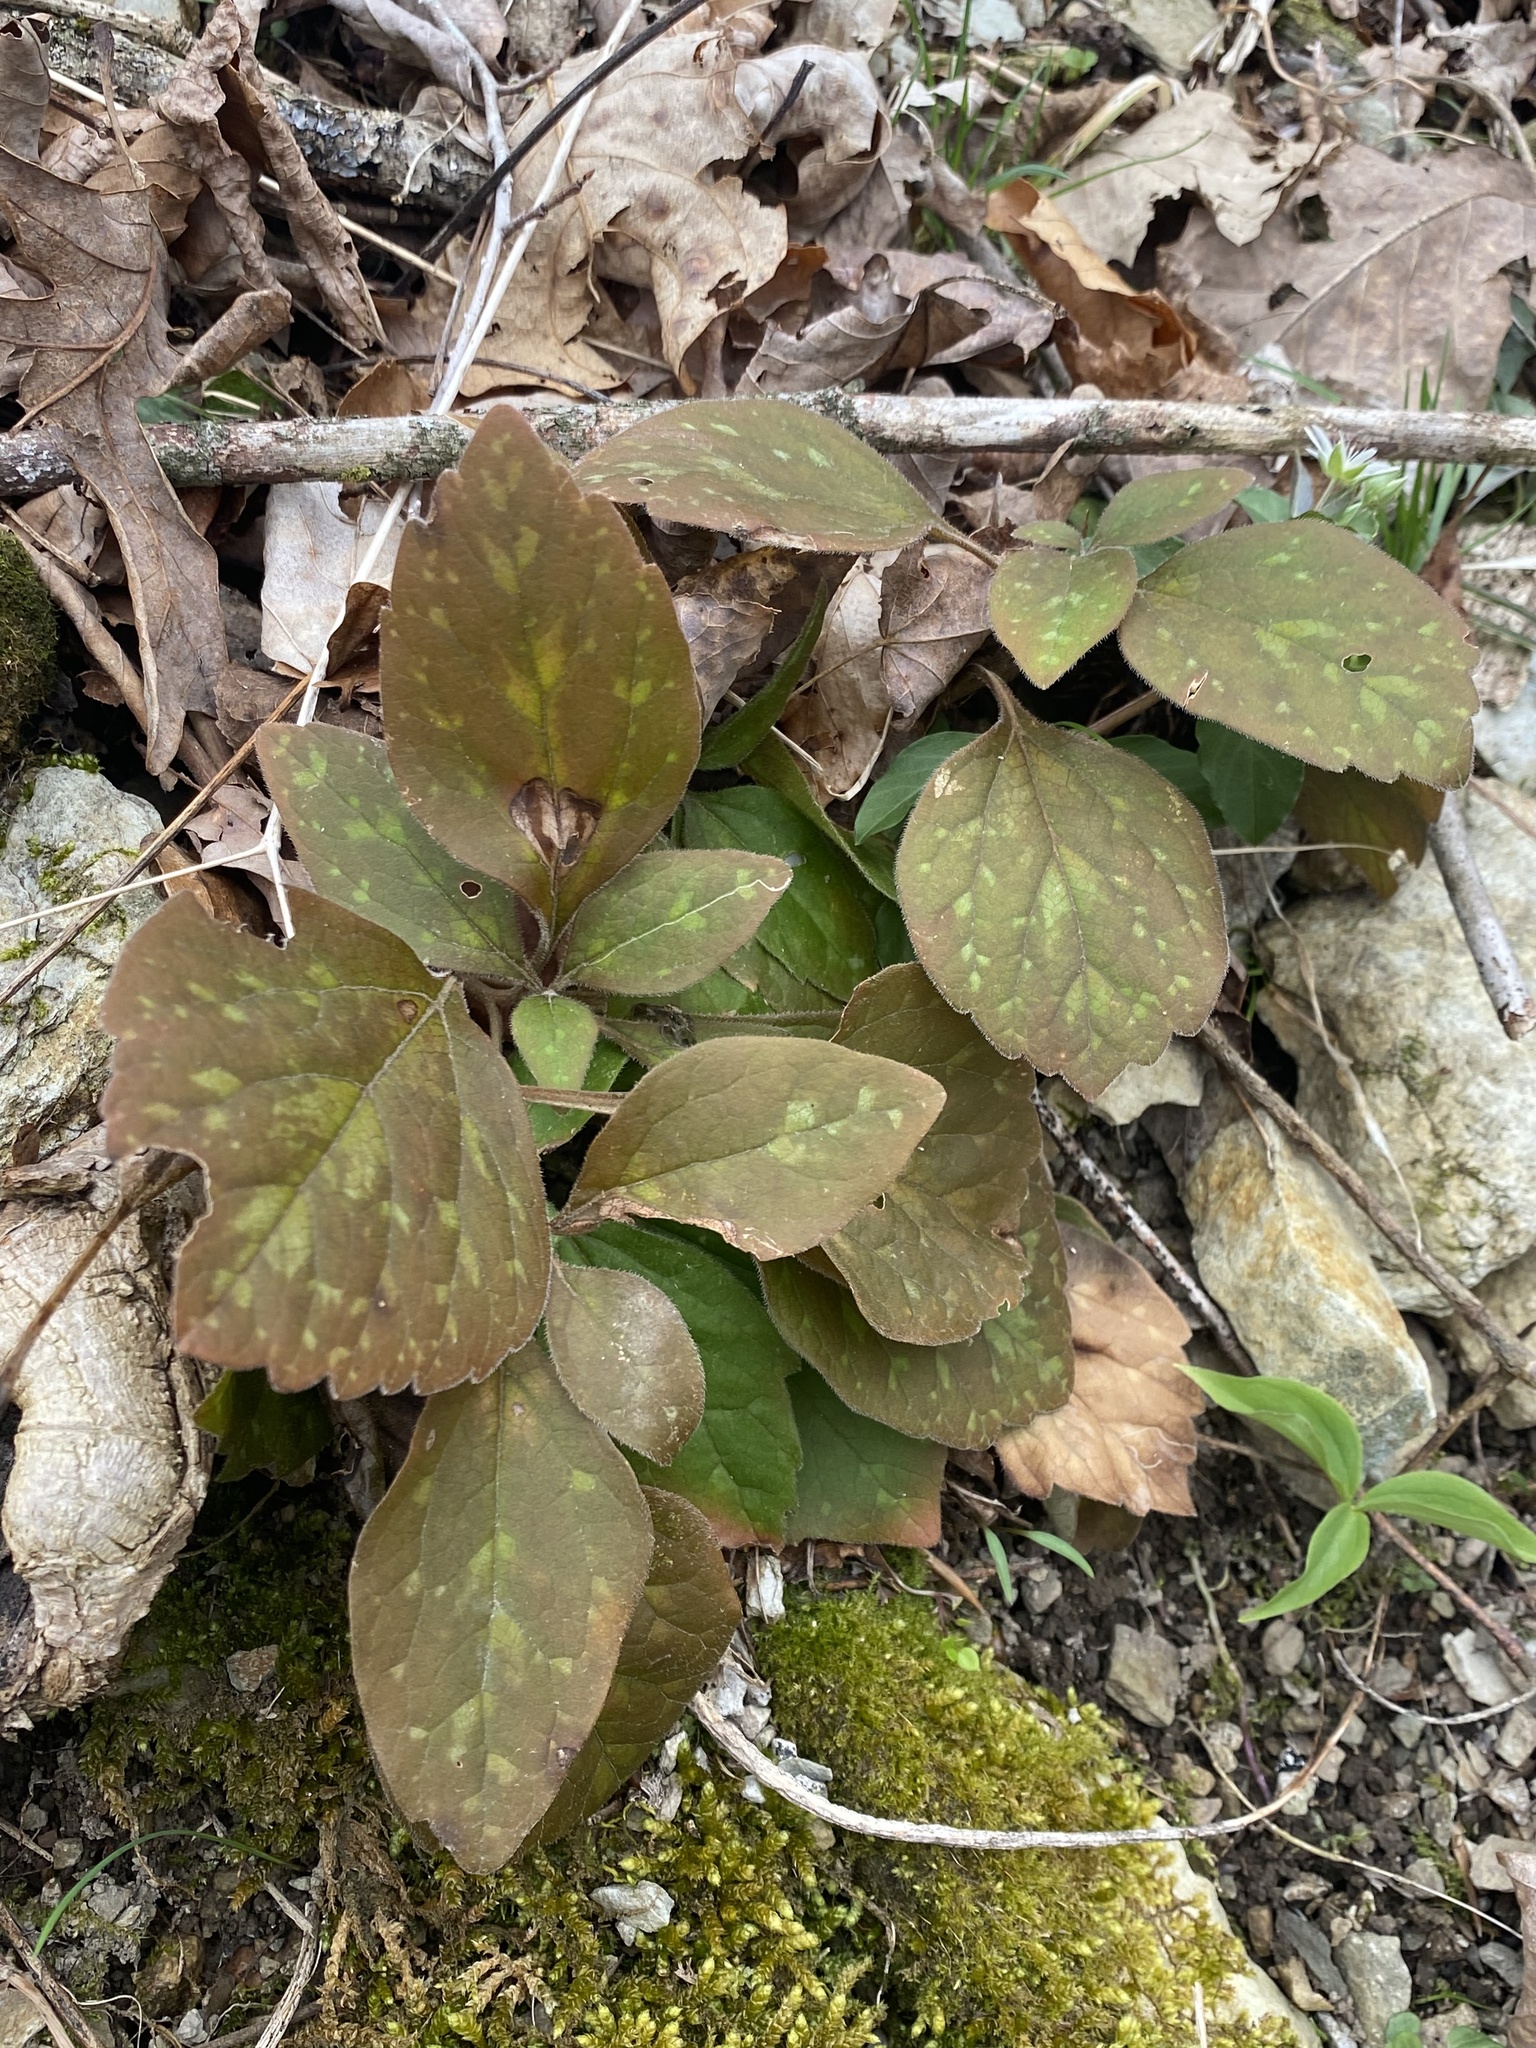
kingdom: Plantae
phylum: Tracheophyta
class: Magnoliopsida
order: Buxales
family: Buxaceae
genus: Pachysandra
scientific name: Pachysandra procumbens
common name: Mountain-spurge
